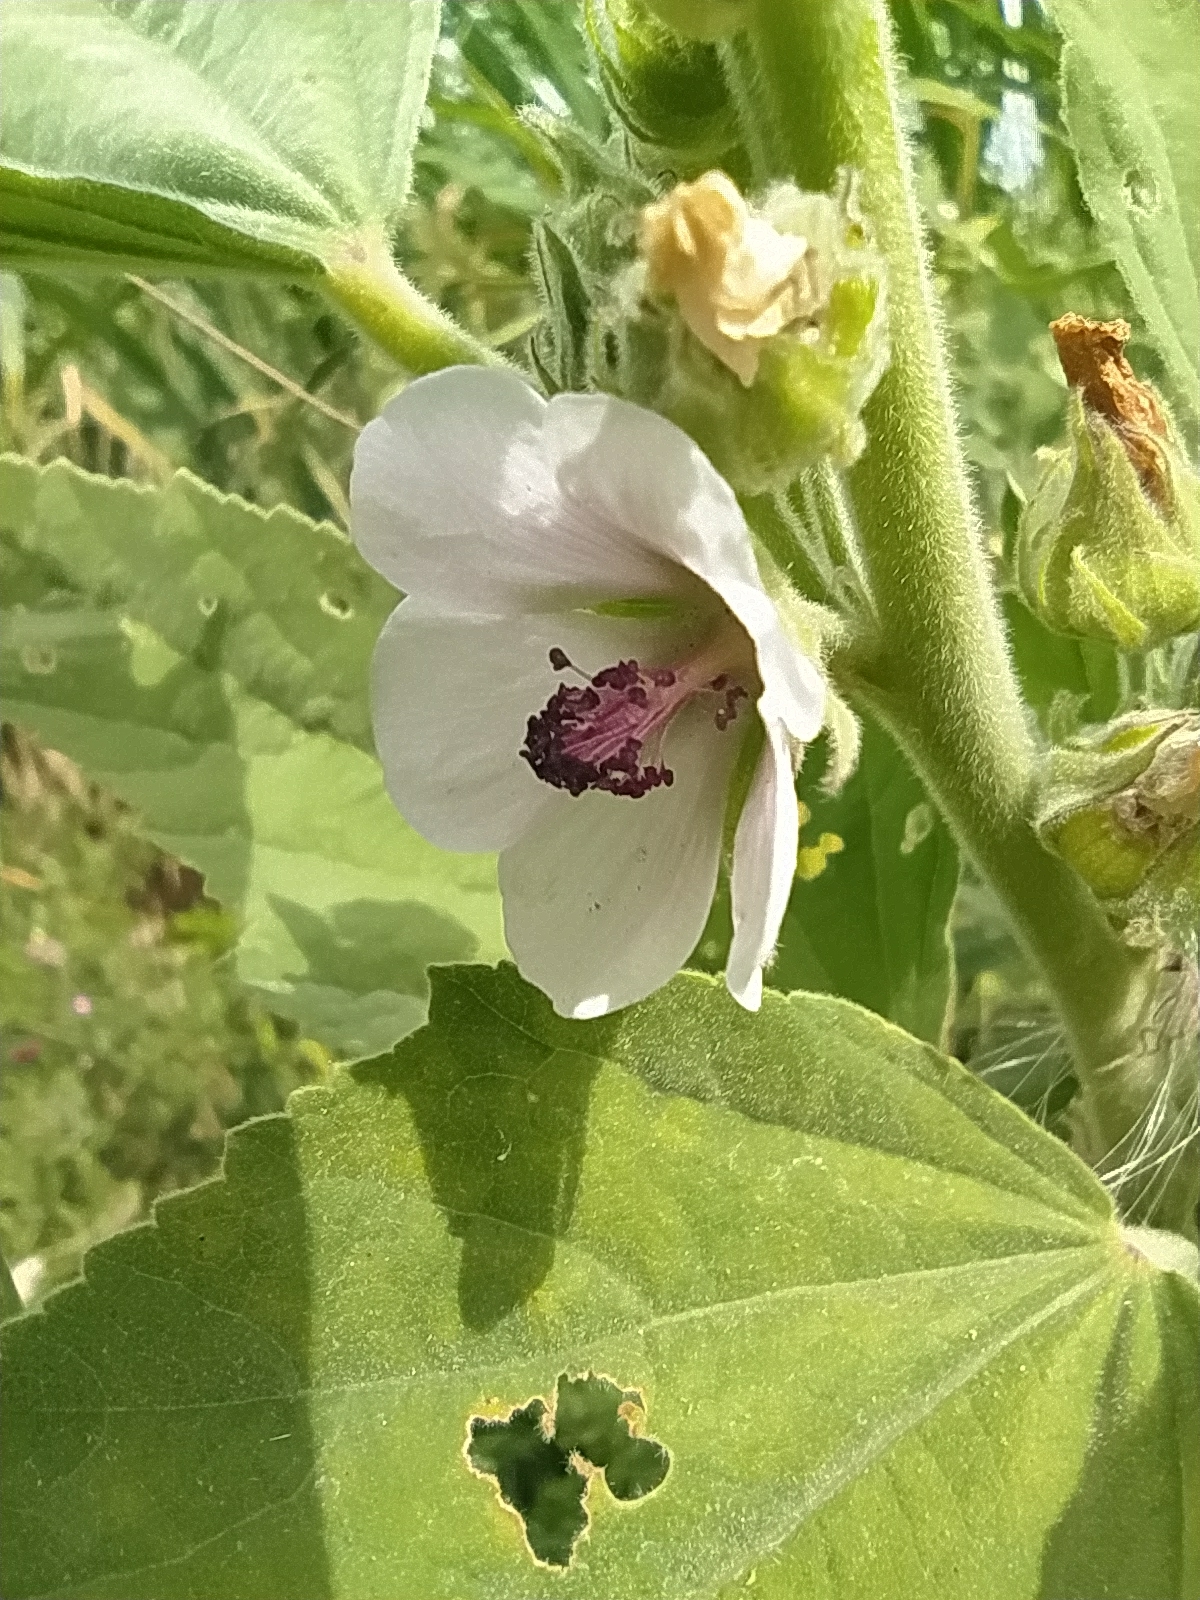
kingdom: Plantae
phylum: Tracheophyta
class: Magnoliopsida
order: Malvales
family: Malvaceae
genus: Althaea
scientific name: Althaea officinalis
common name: Marsh-mallow
